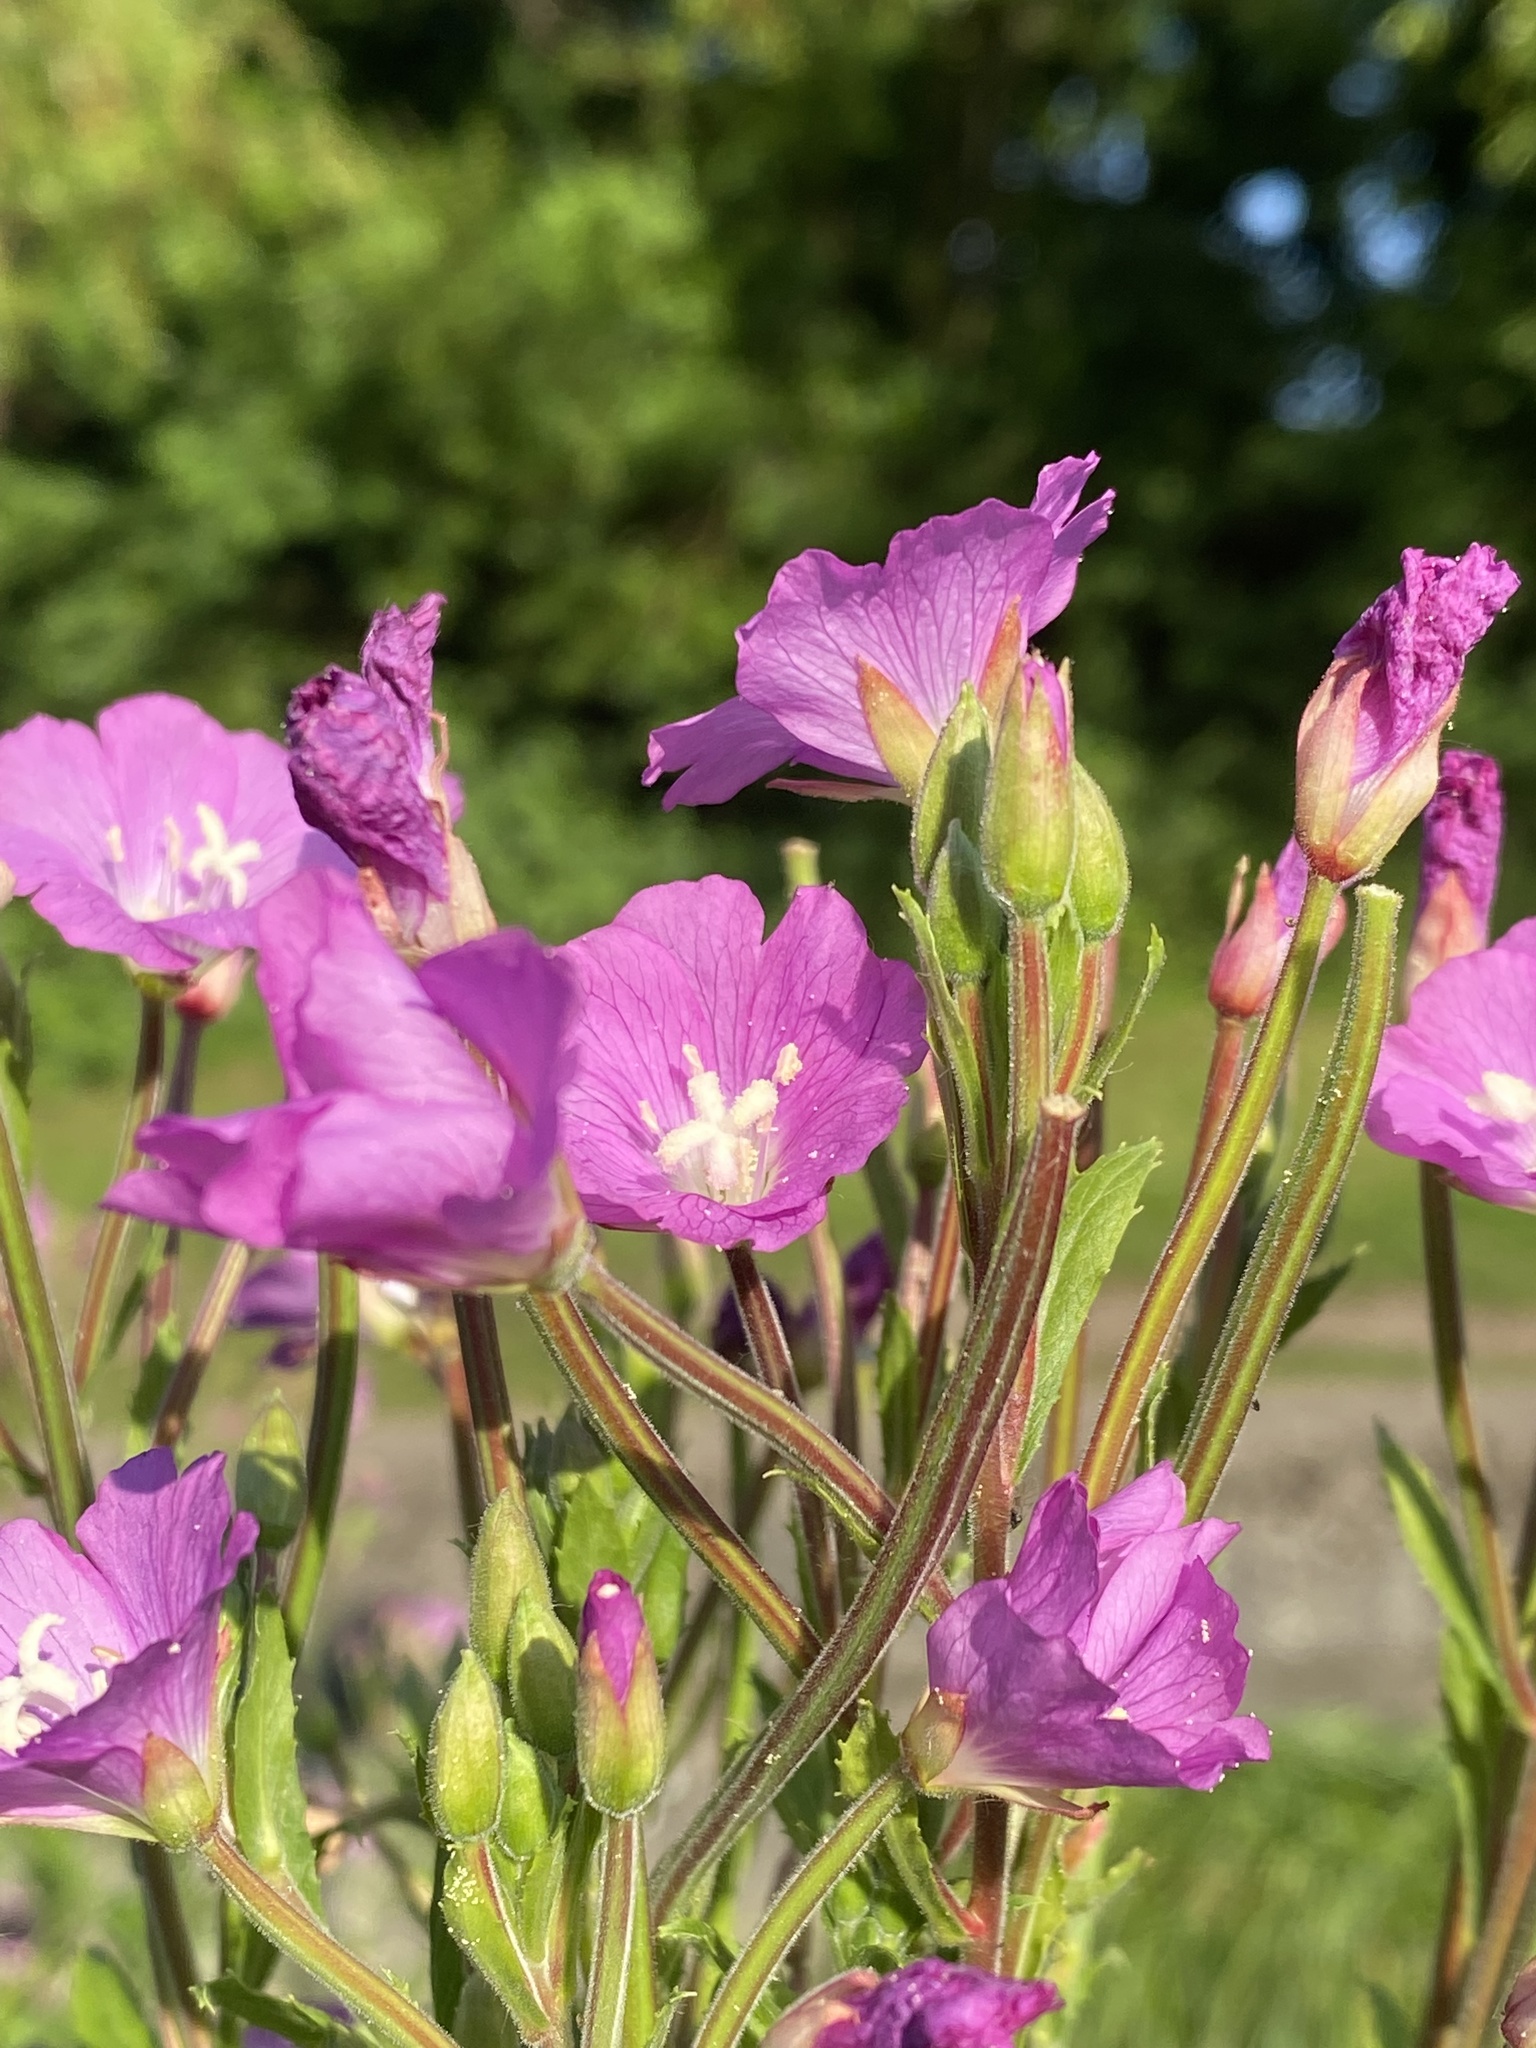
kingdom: Plantae
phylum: Tracheophyta
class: Magnoliopsida
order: Myrtales
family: Onagraceae
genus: Epilobium
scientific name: Epilobium hirsutum
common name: Great willowherb
